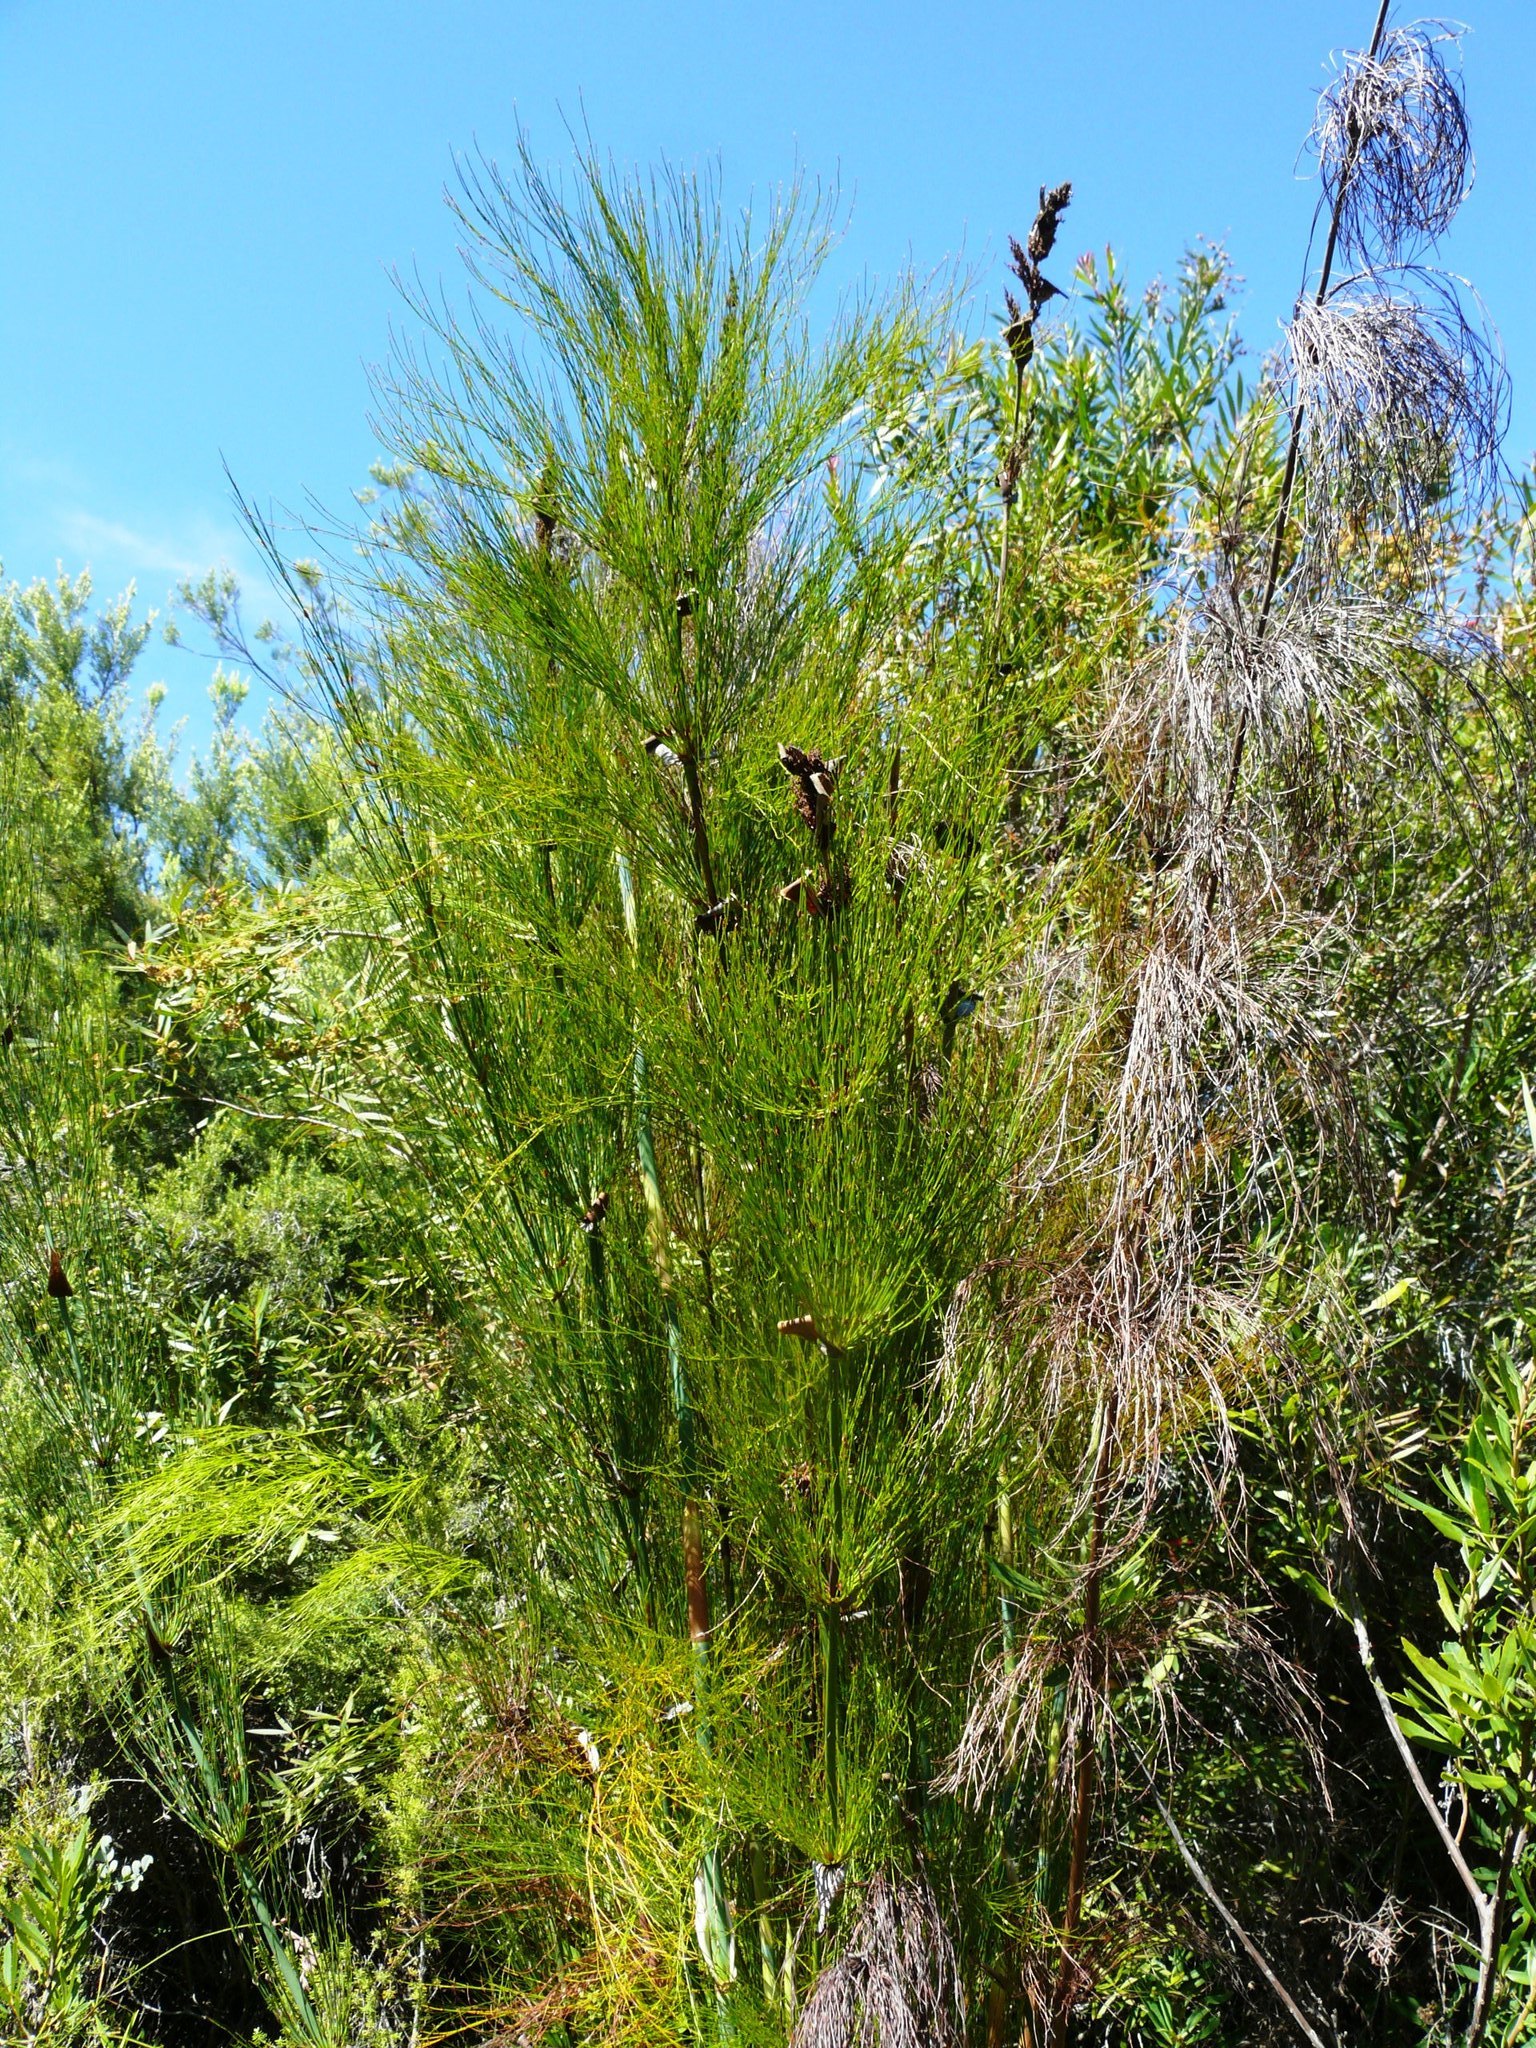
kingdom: Plantae
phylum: Tracheophyta
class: Liliopsida
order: Poales
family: Restionaceae
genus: Elegia
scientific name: Elegia capensis
